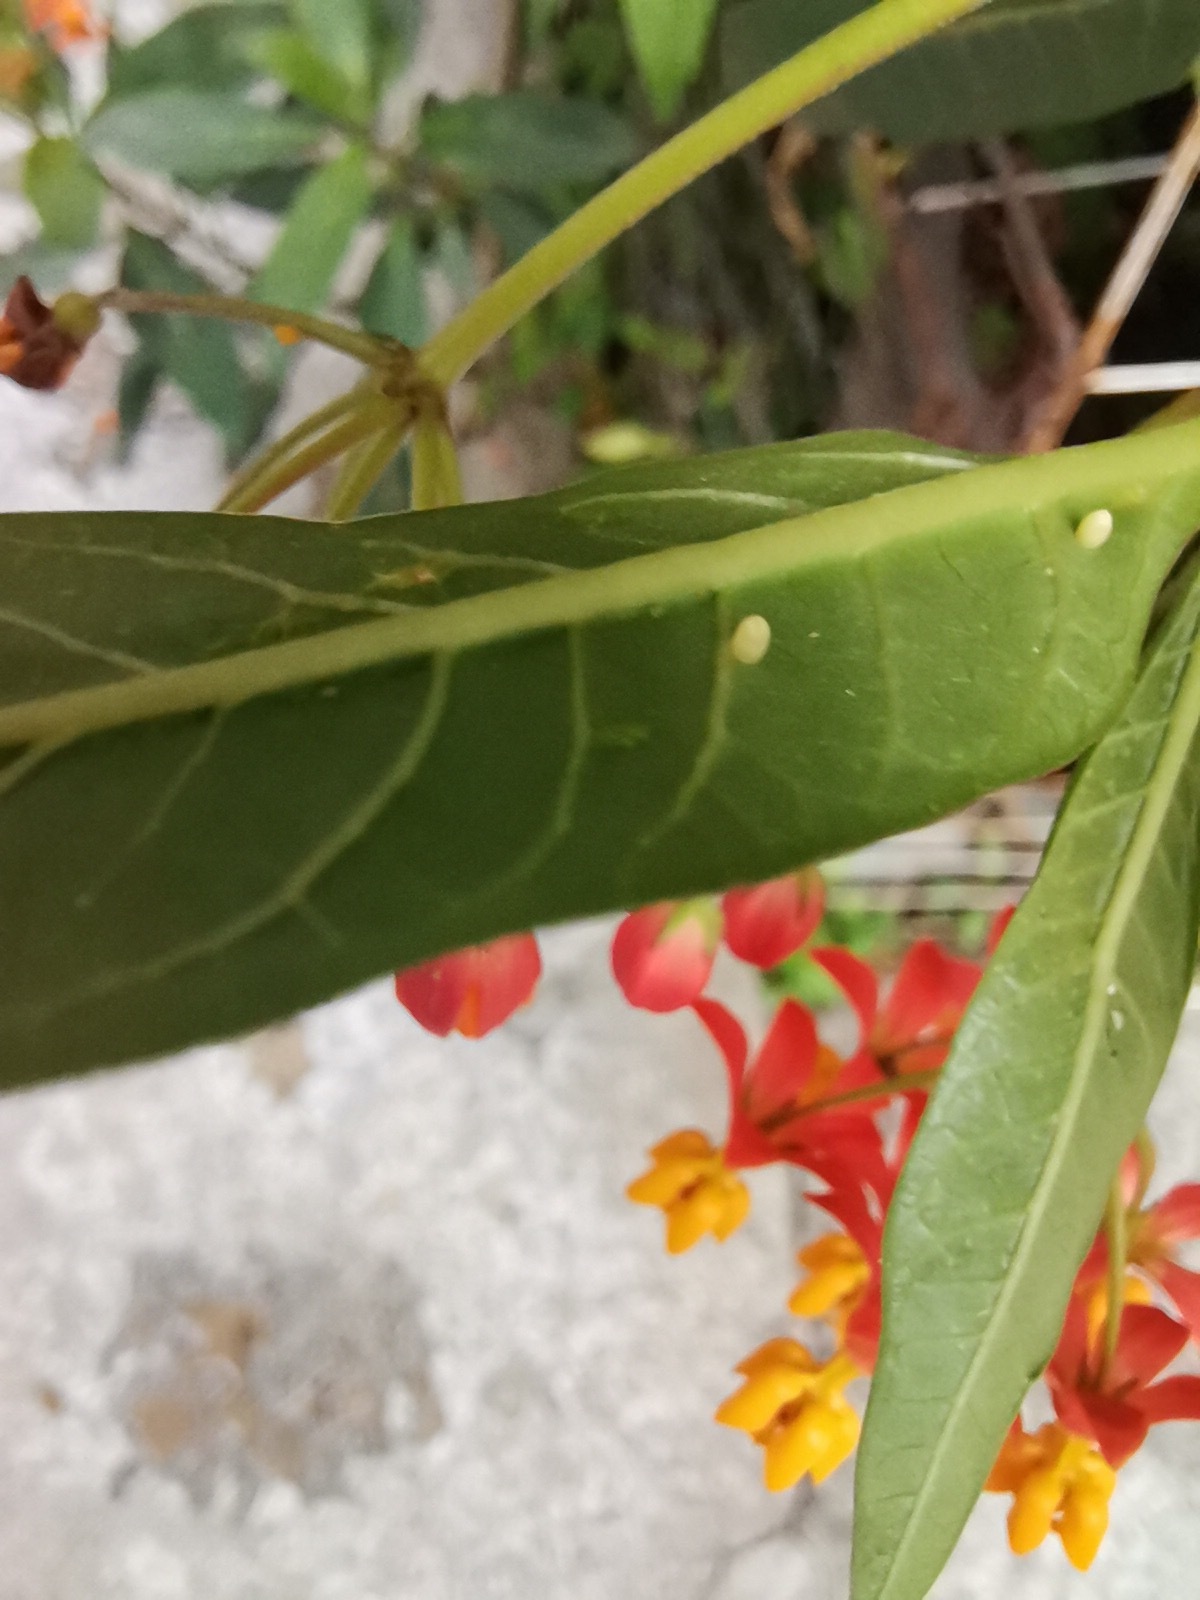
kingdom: Animalia
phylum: Arthropoda
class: Insecta
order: Lepidoptera
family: Nymphalidae
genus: Danaus
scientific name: Danaus plexippus
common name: Monarch
